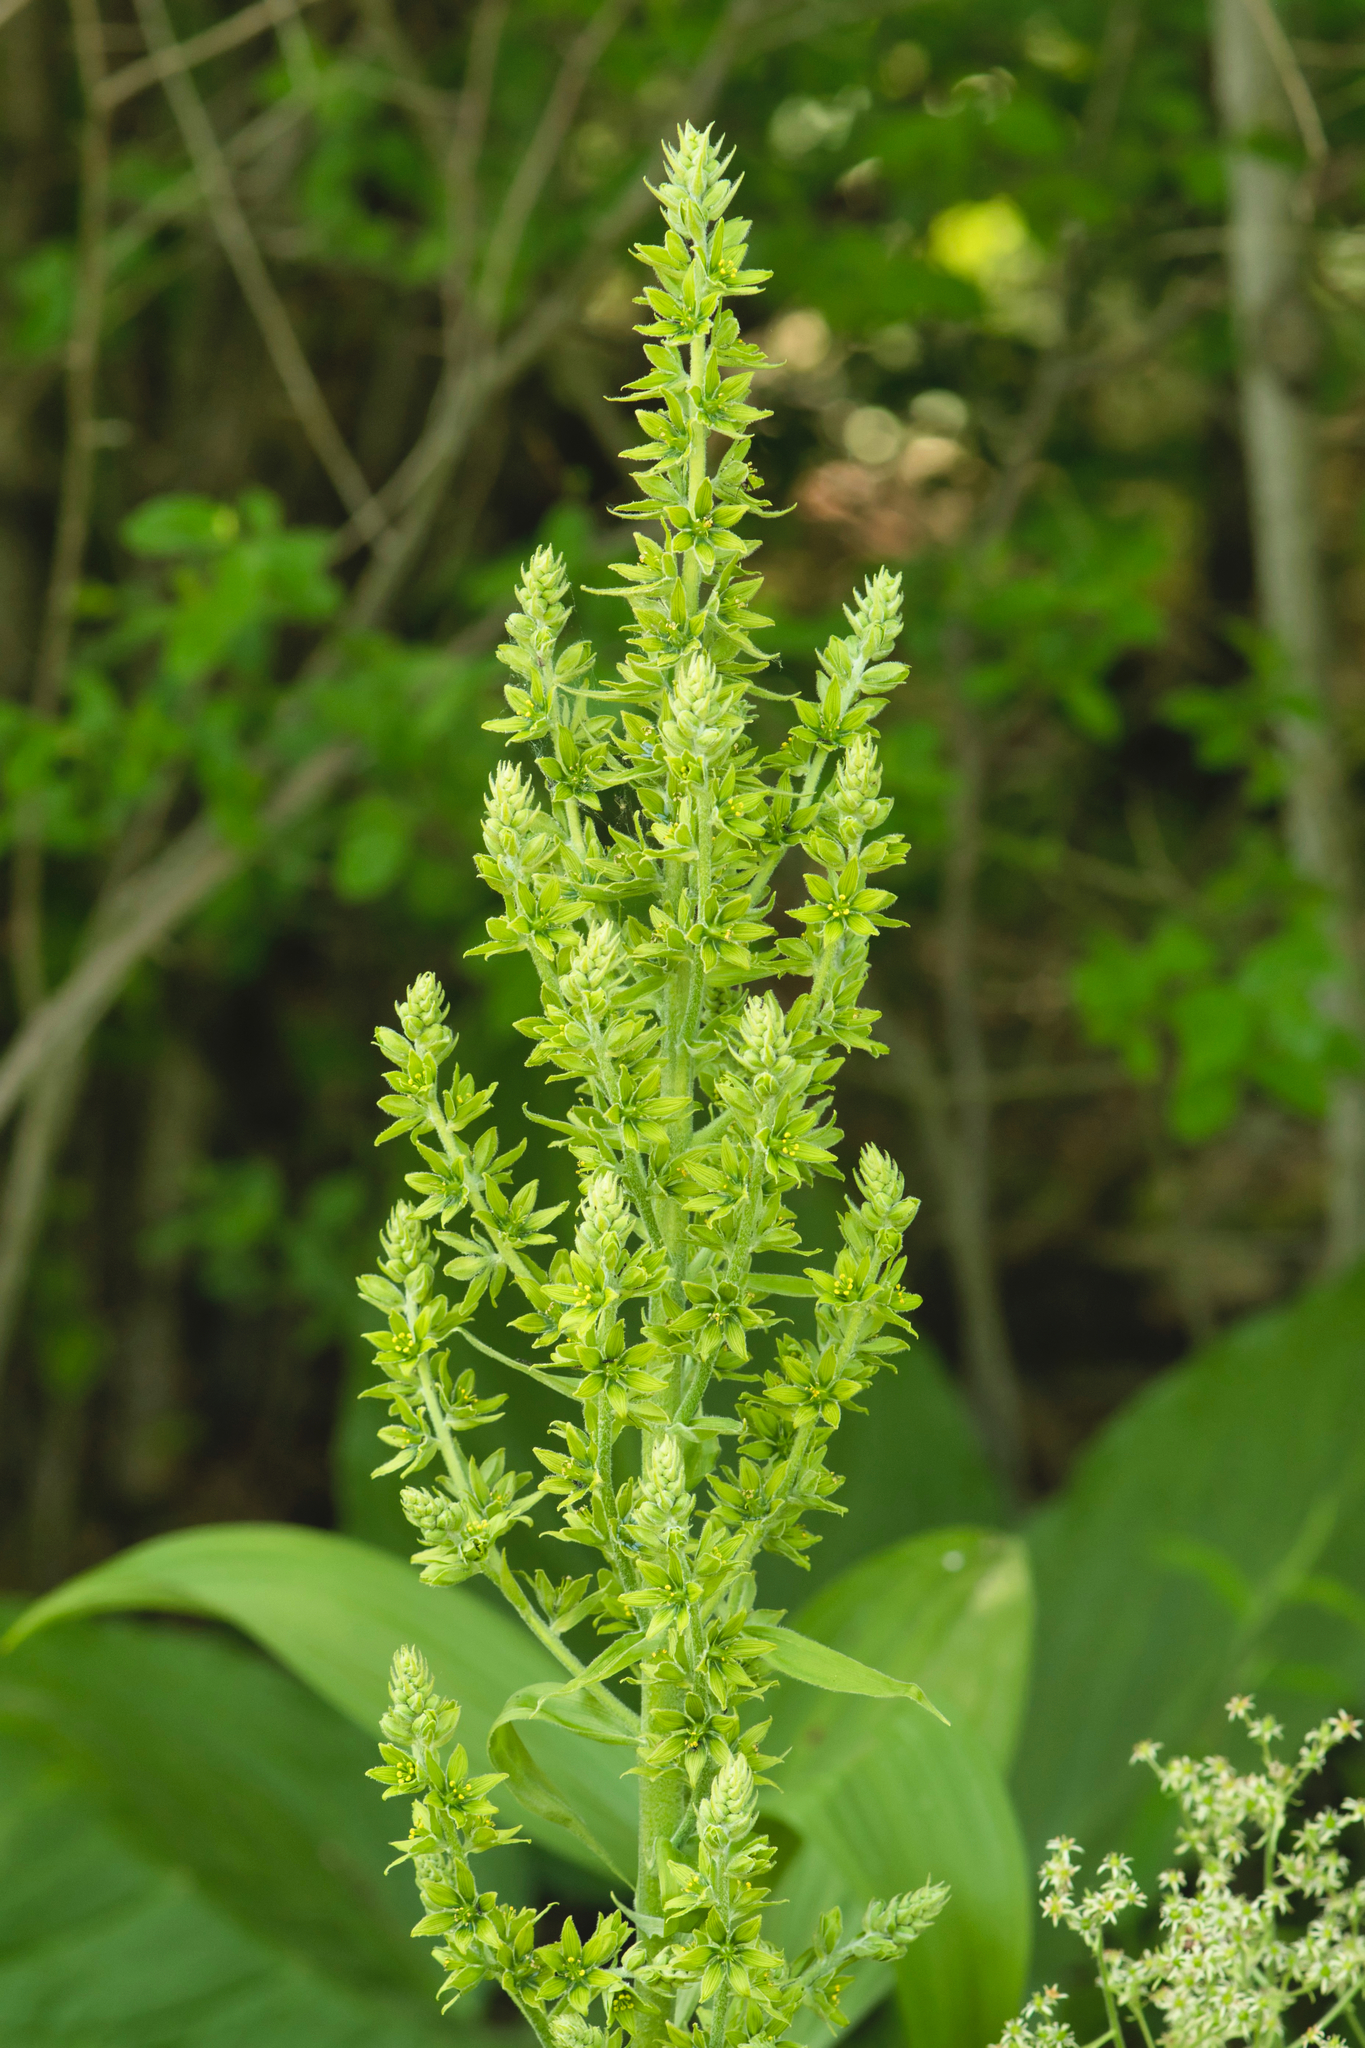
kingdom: Plantae
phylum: Tracheophyta
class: Liliopsida
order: Liliales
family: Melanthiaceae
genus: Veratrum
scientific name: Veratrum viride
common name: American false hellebore
